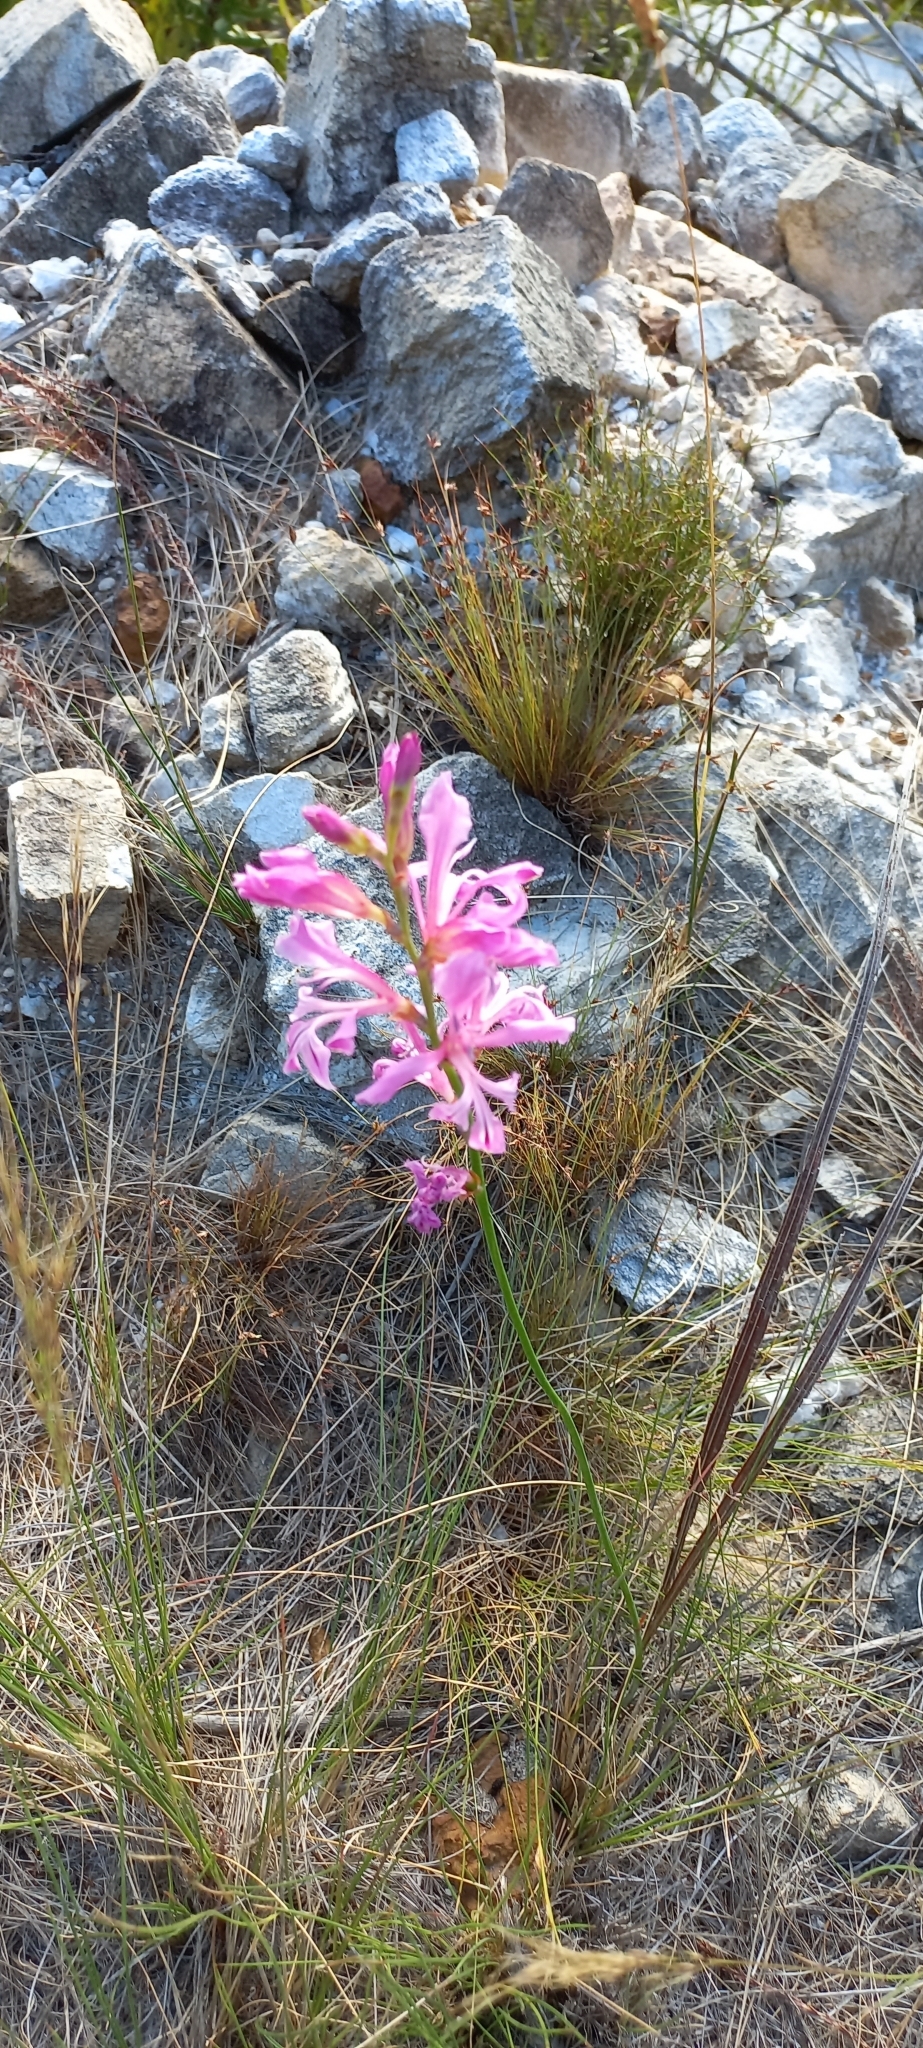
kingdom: Plantae
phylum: Tracheophyta
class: Liliopsida
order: Asparagales
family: Iridaceae
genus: Tritoniopsis
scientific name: Tritoniopsis lata
